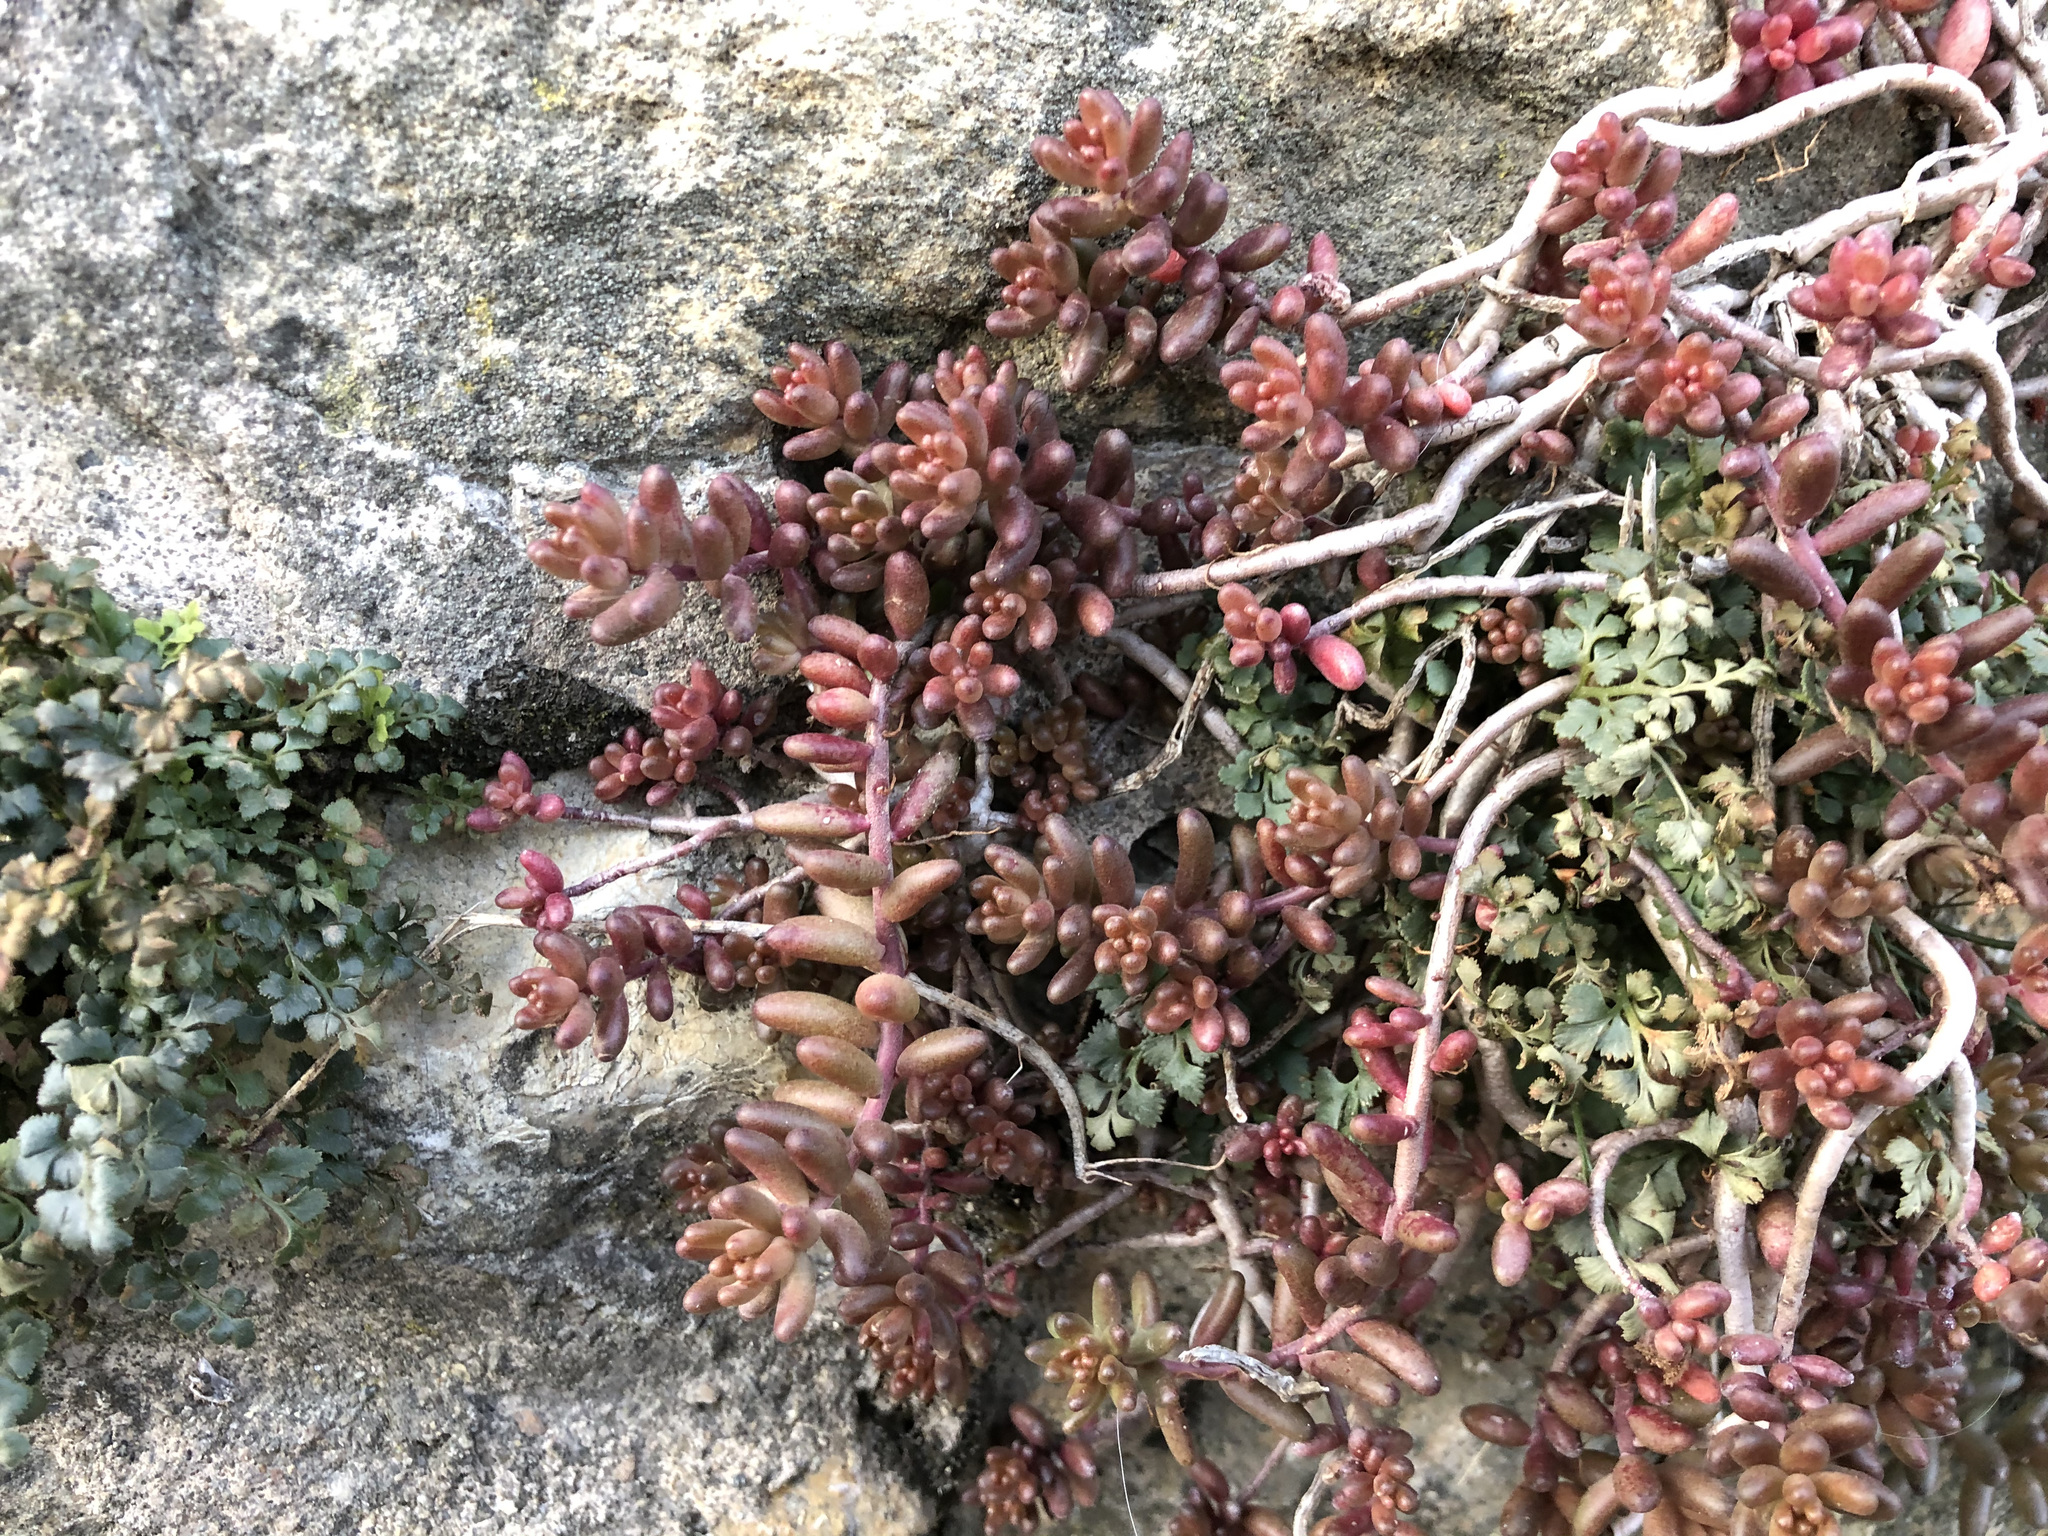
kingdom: Plantae
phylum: Tracheophyta
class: Magnoliopsida
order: Saxifragales
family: Crassulaceae
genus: Sedum
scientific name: Sedum album
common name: White stonecrop
